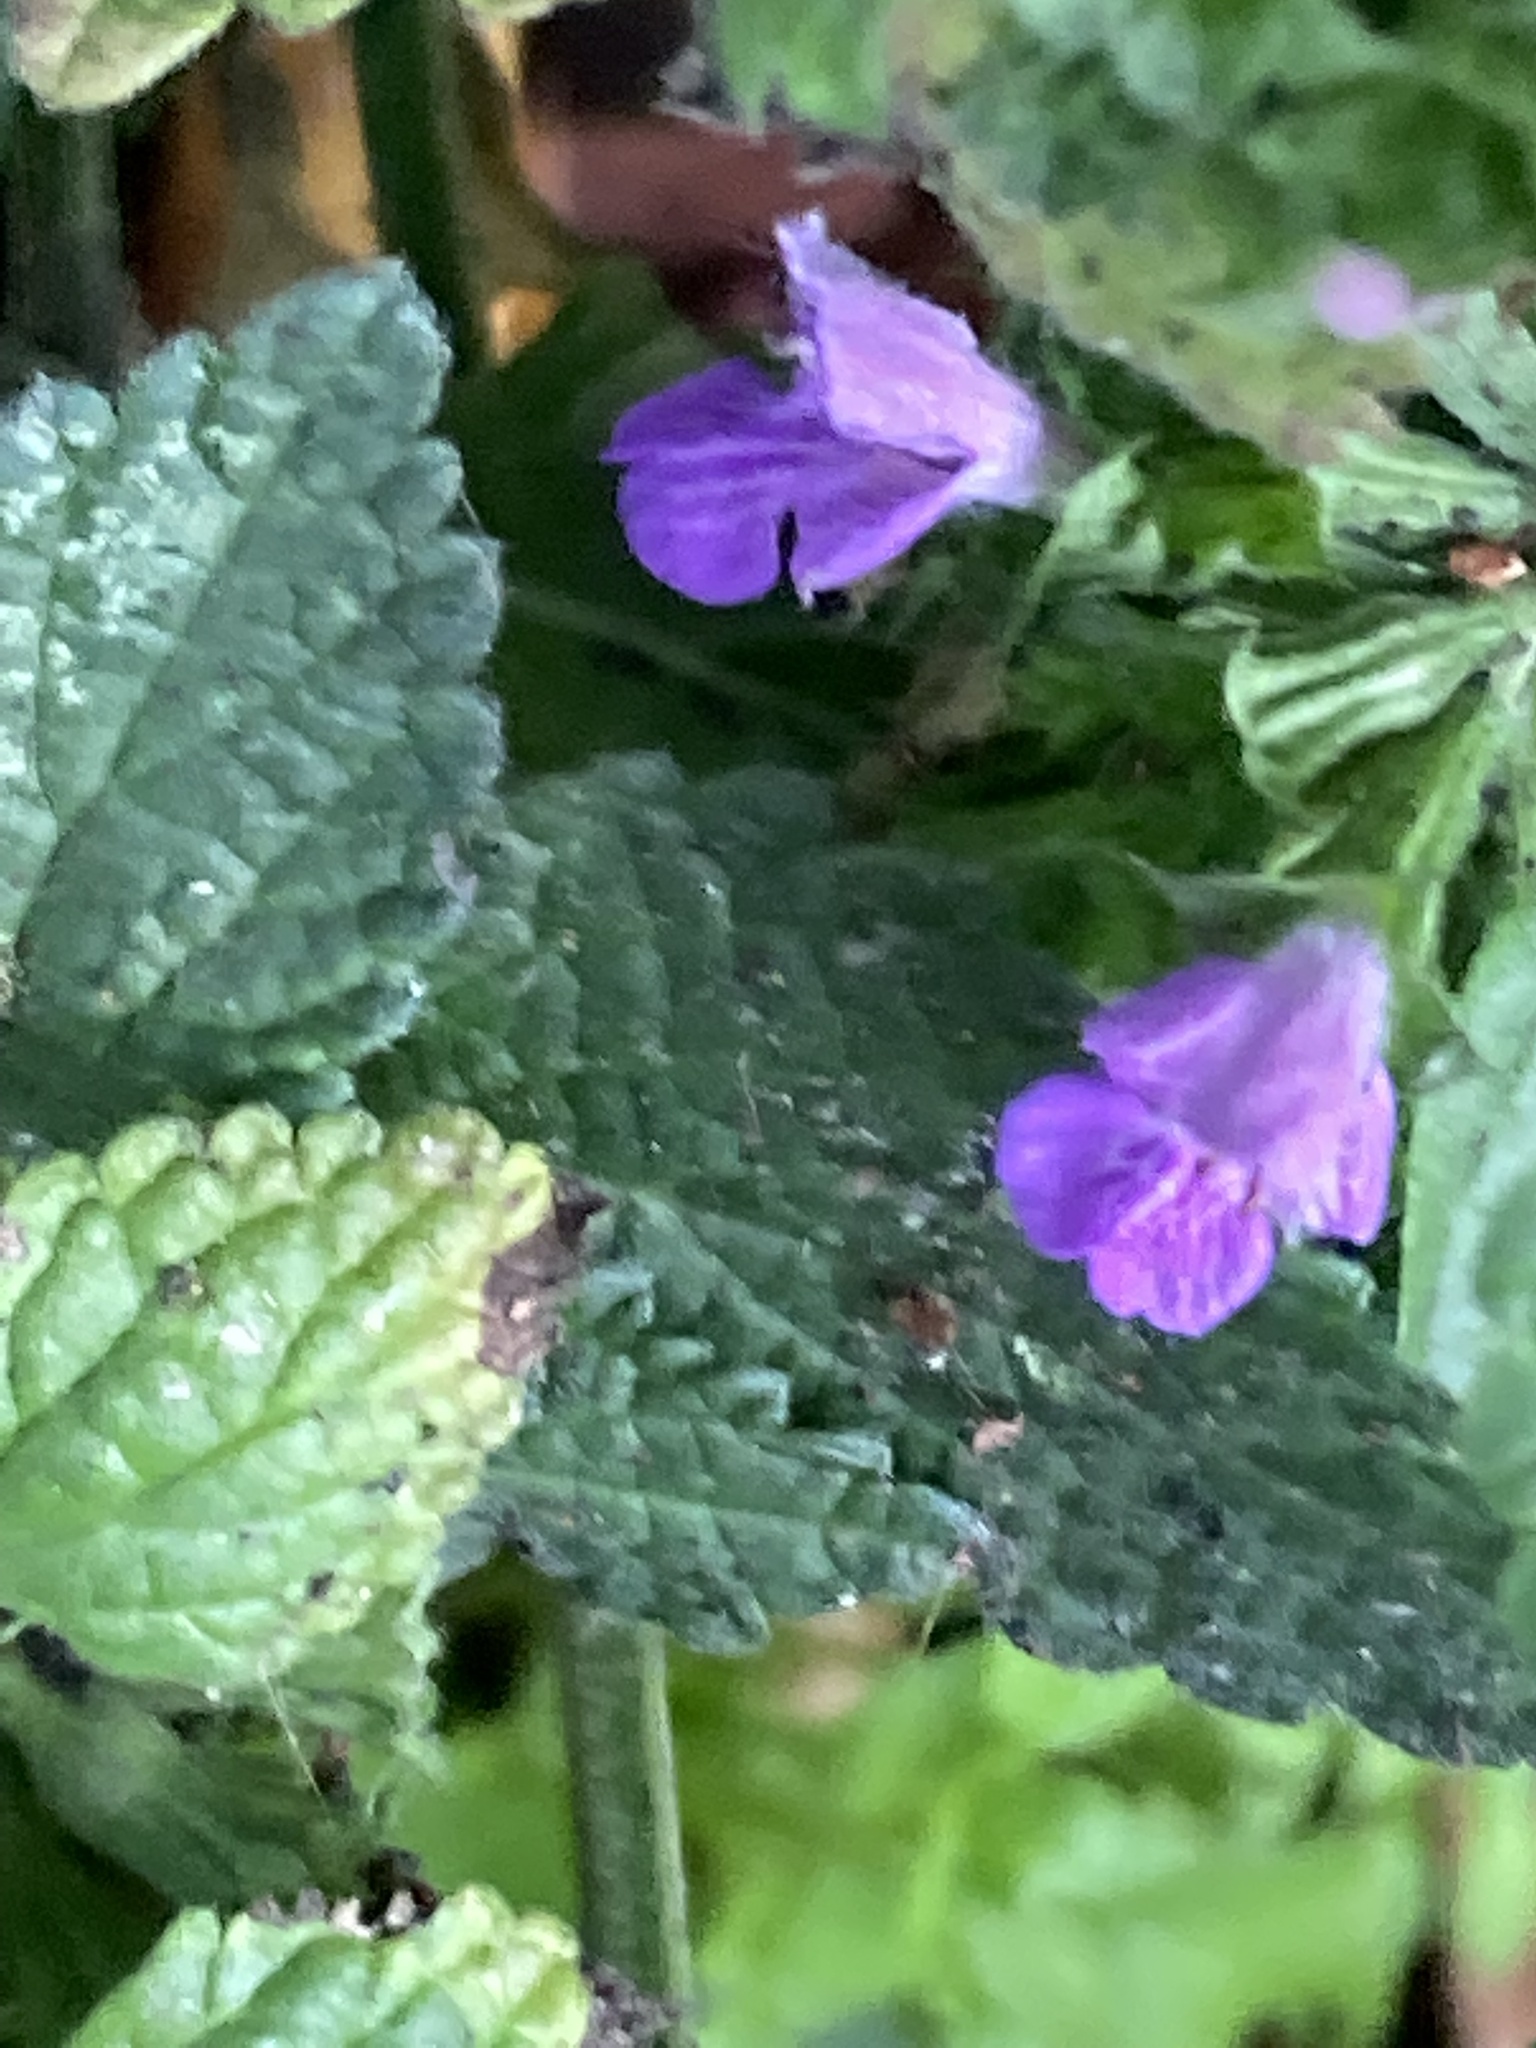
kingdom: Plantae
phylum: Tracheophyta
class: Magnoliopsida
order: Lamiales
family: Lamiaceae
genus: Ballota
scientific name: Ballota nigra
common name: Black horehound
